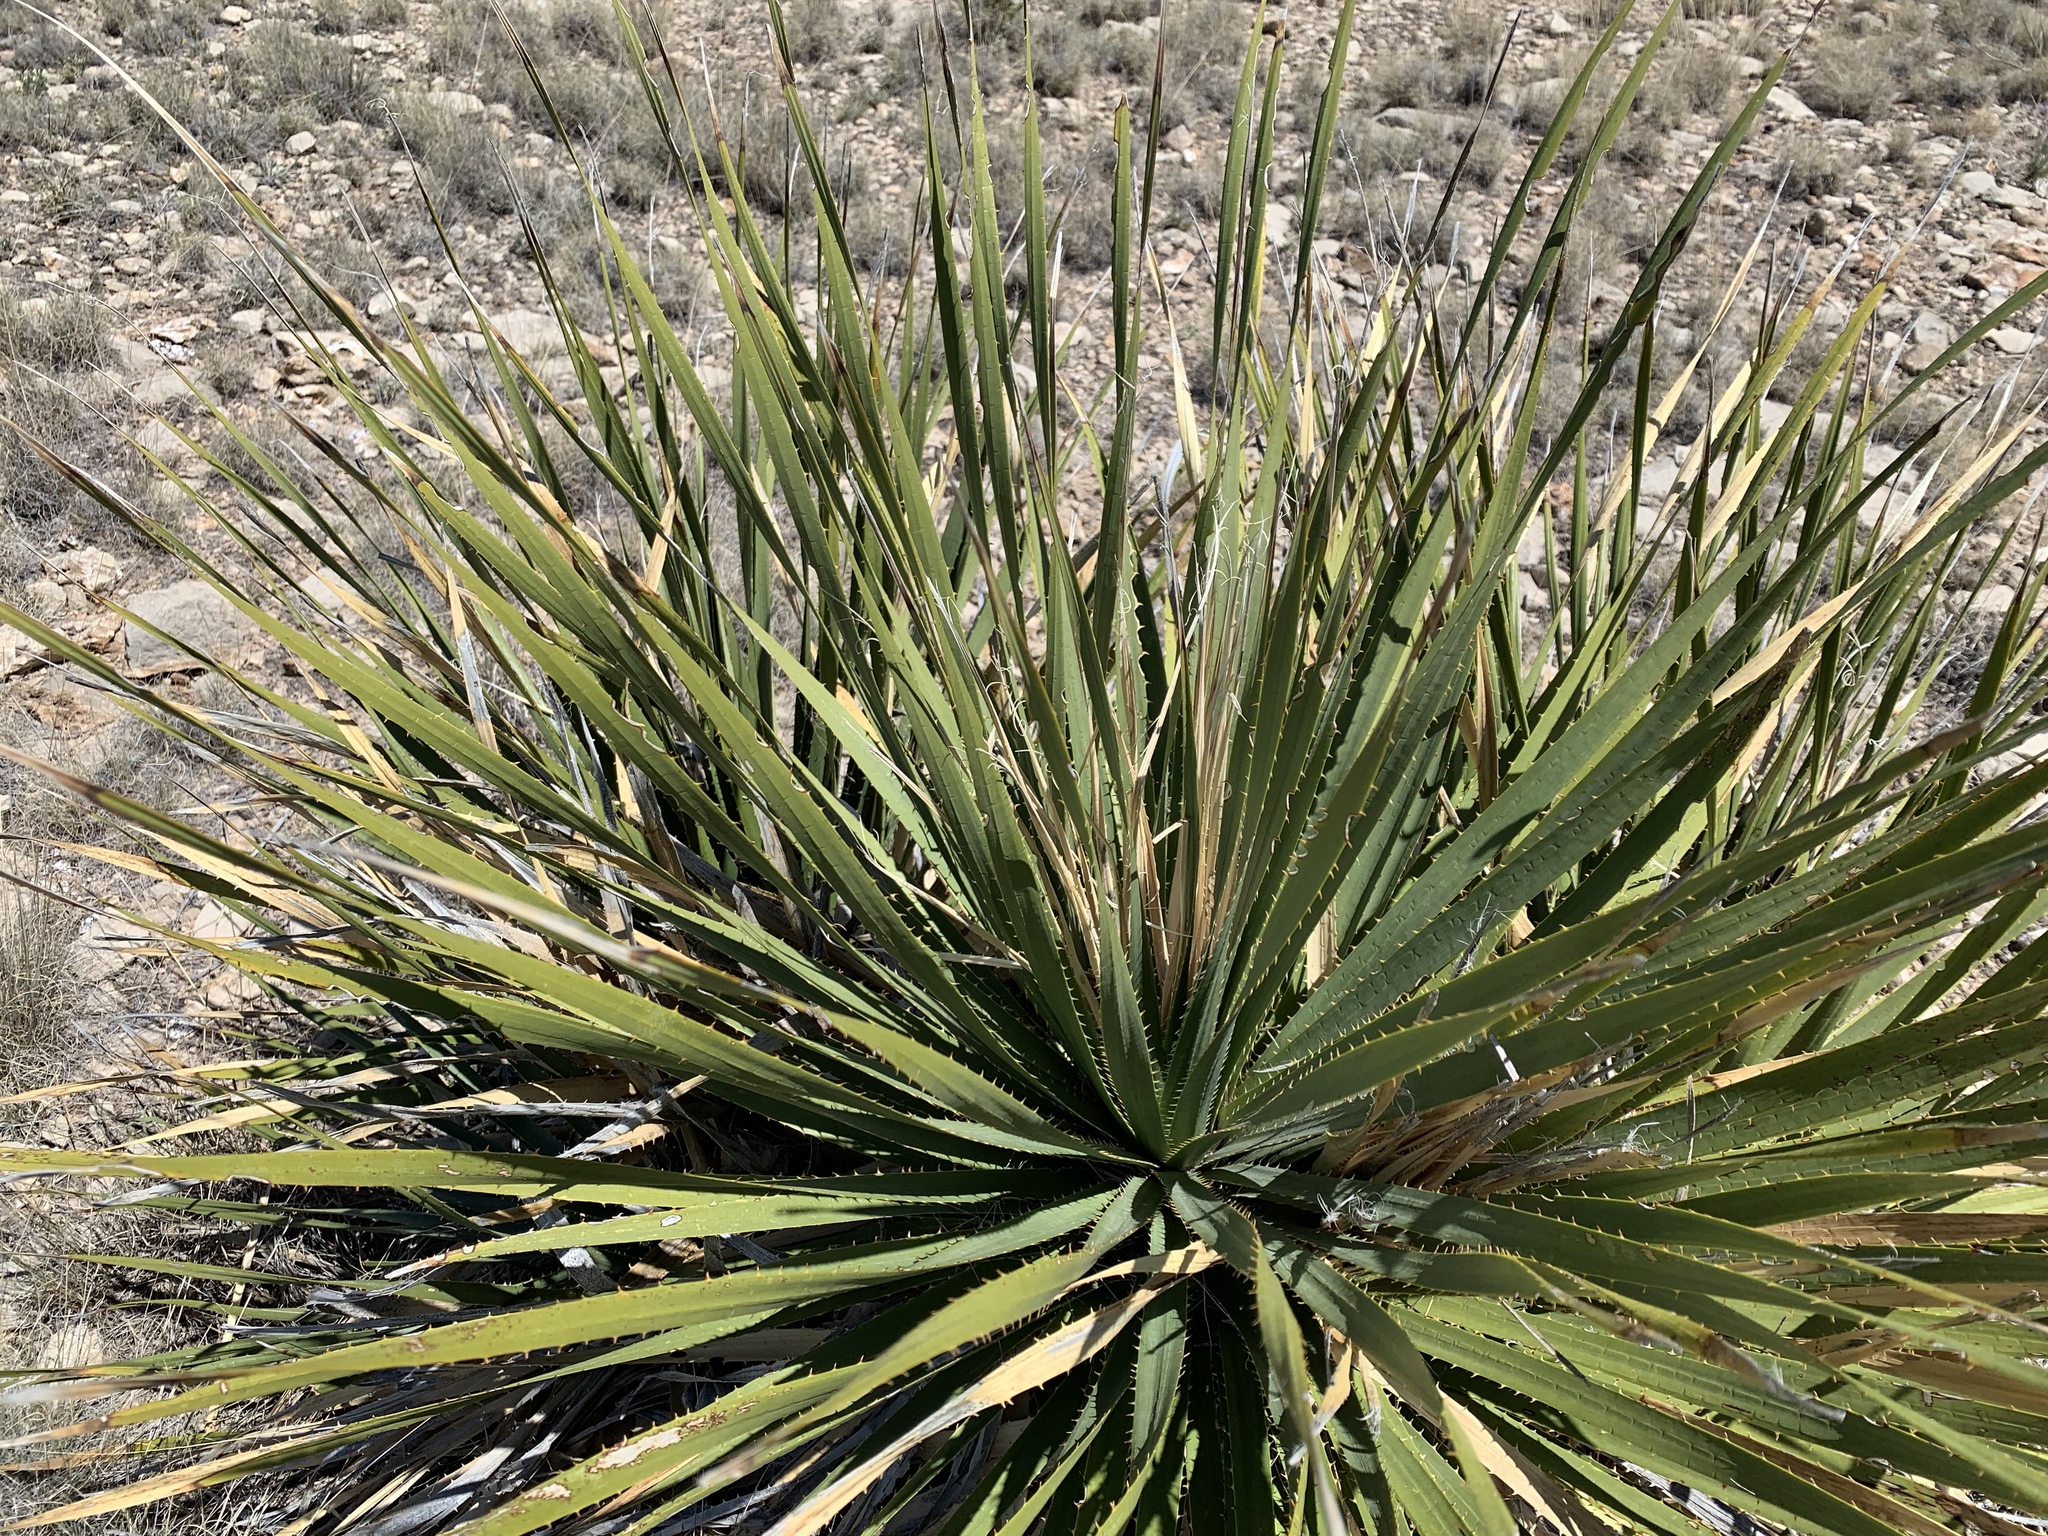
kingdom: Plantae
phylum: Tracheophyta
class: Liliopsida
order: Asparagales
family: Asparagaceae
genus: Dasylirion
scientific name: Dasylirion wheeleri
